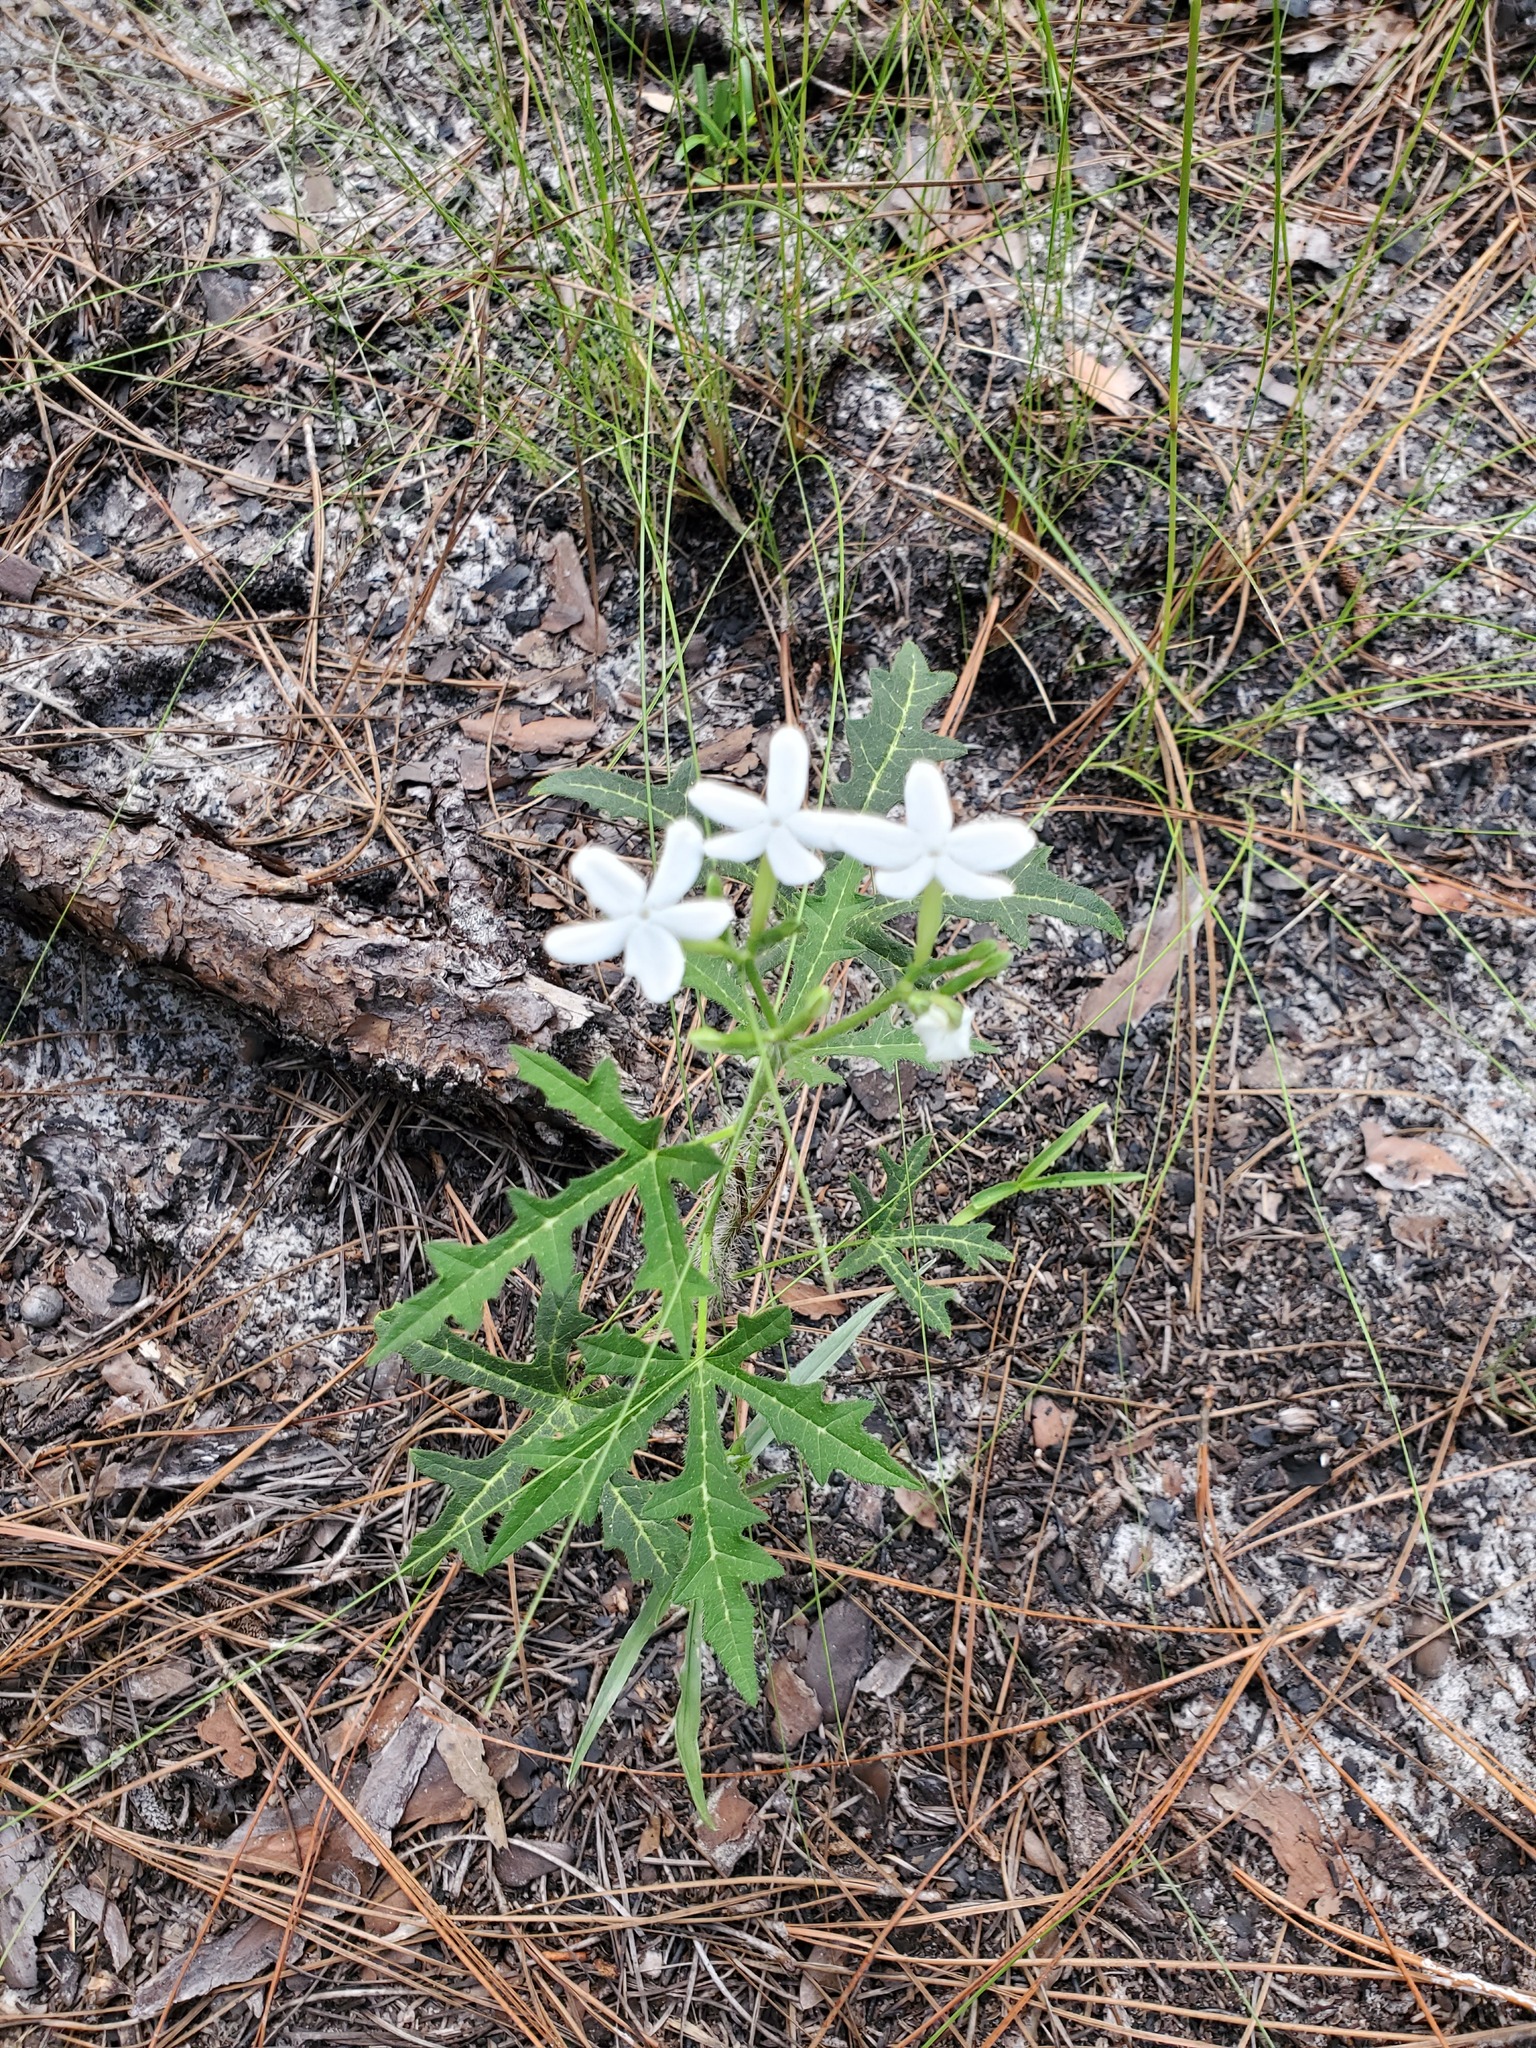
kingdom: Plantae
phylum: Tracheophyta
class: Magnoliopsida
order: Malpighiales
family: Euphorbiaceae
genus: Cnidoscolus
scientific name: Cnidoscolus stimulosus
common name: Bull-nettle
